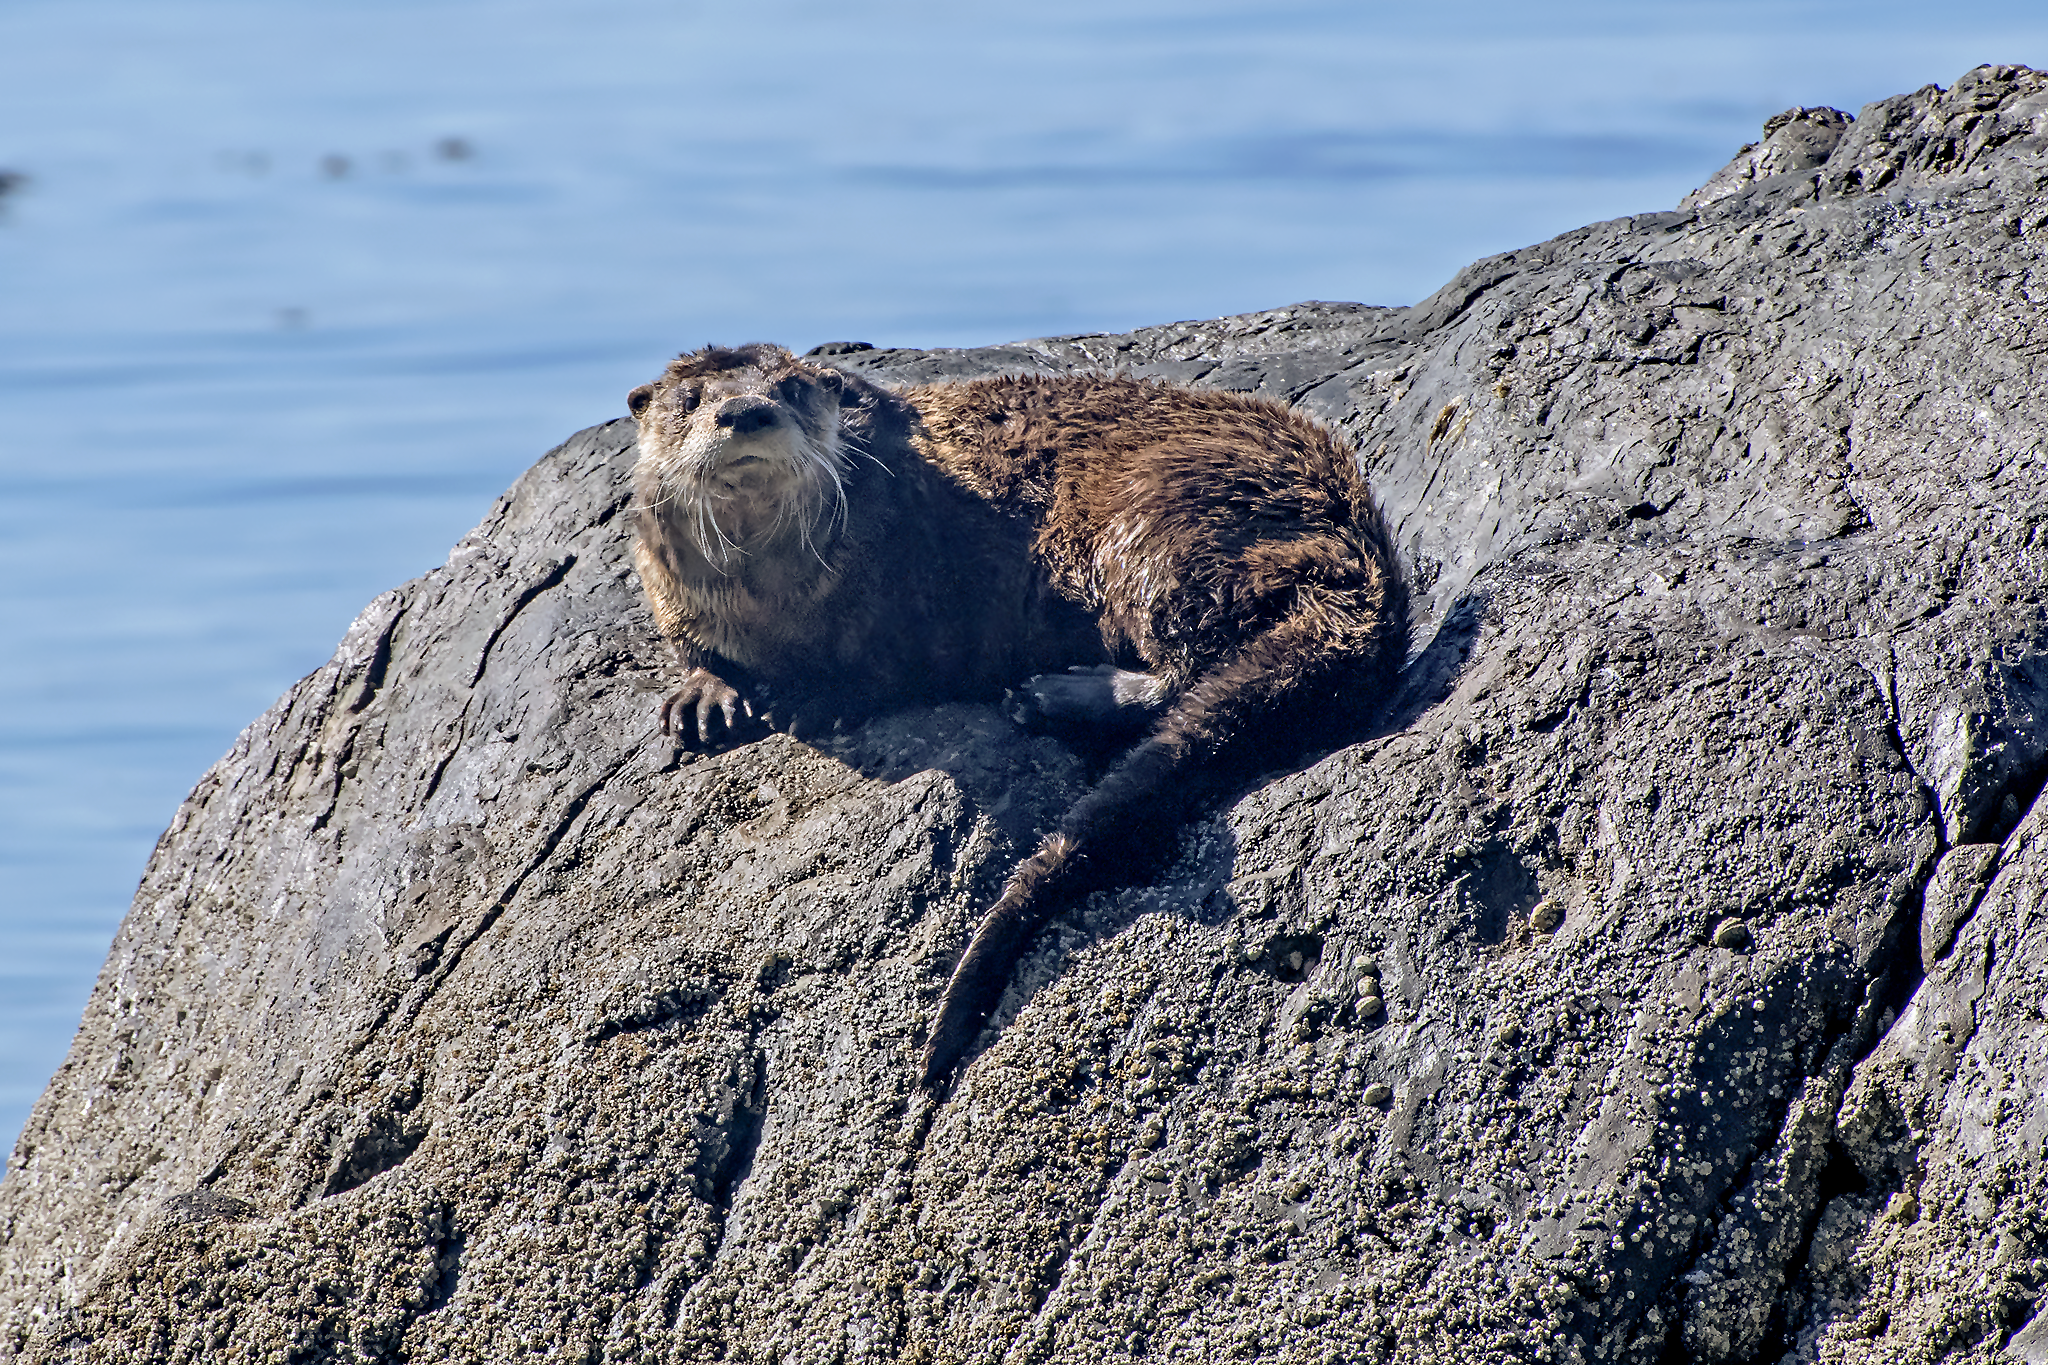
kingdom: Animalia
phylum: Chordata
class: Mammalia
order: Carnivora
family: Mustelidae
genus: Lontra
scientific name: Lontra canadensis
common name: North american river otter
